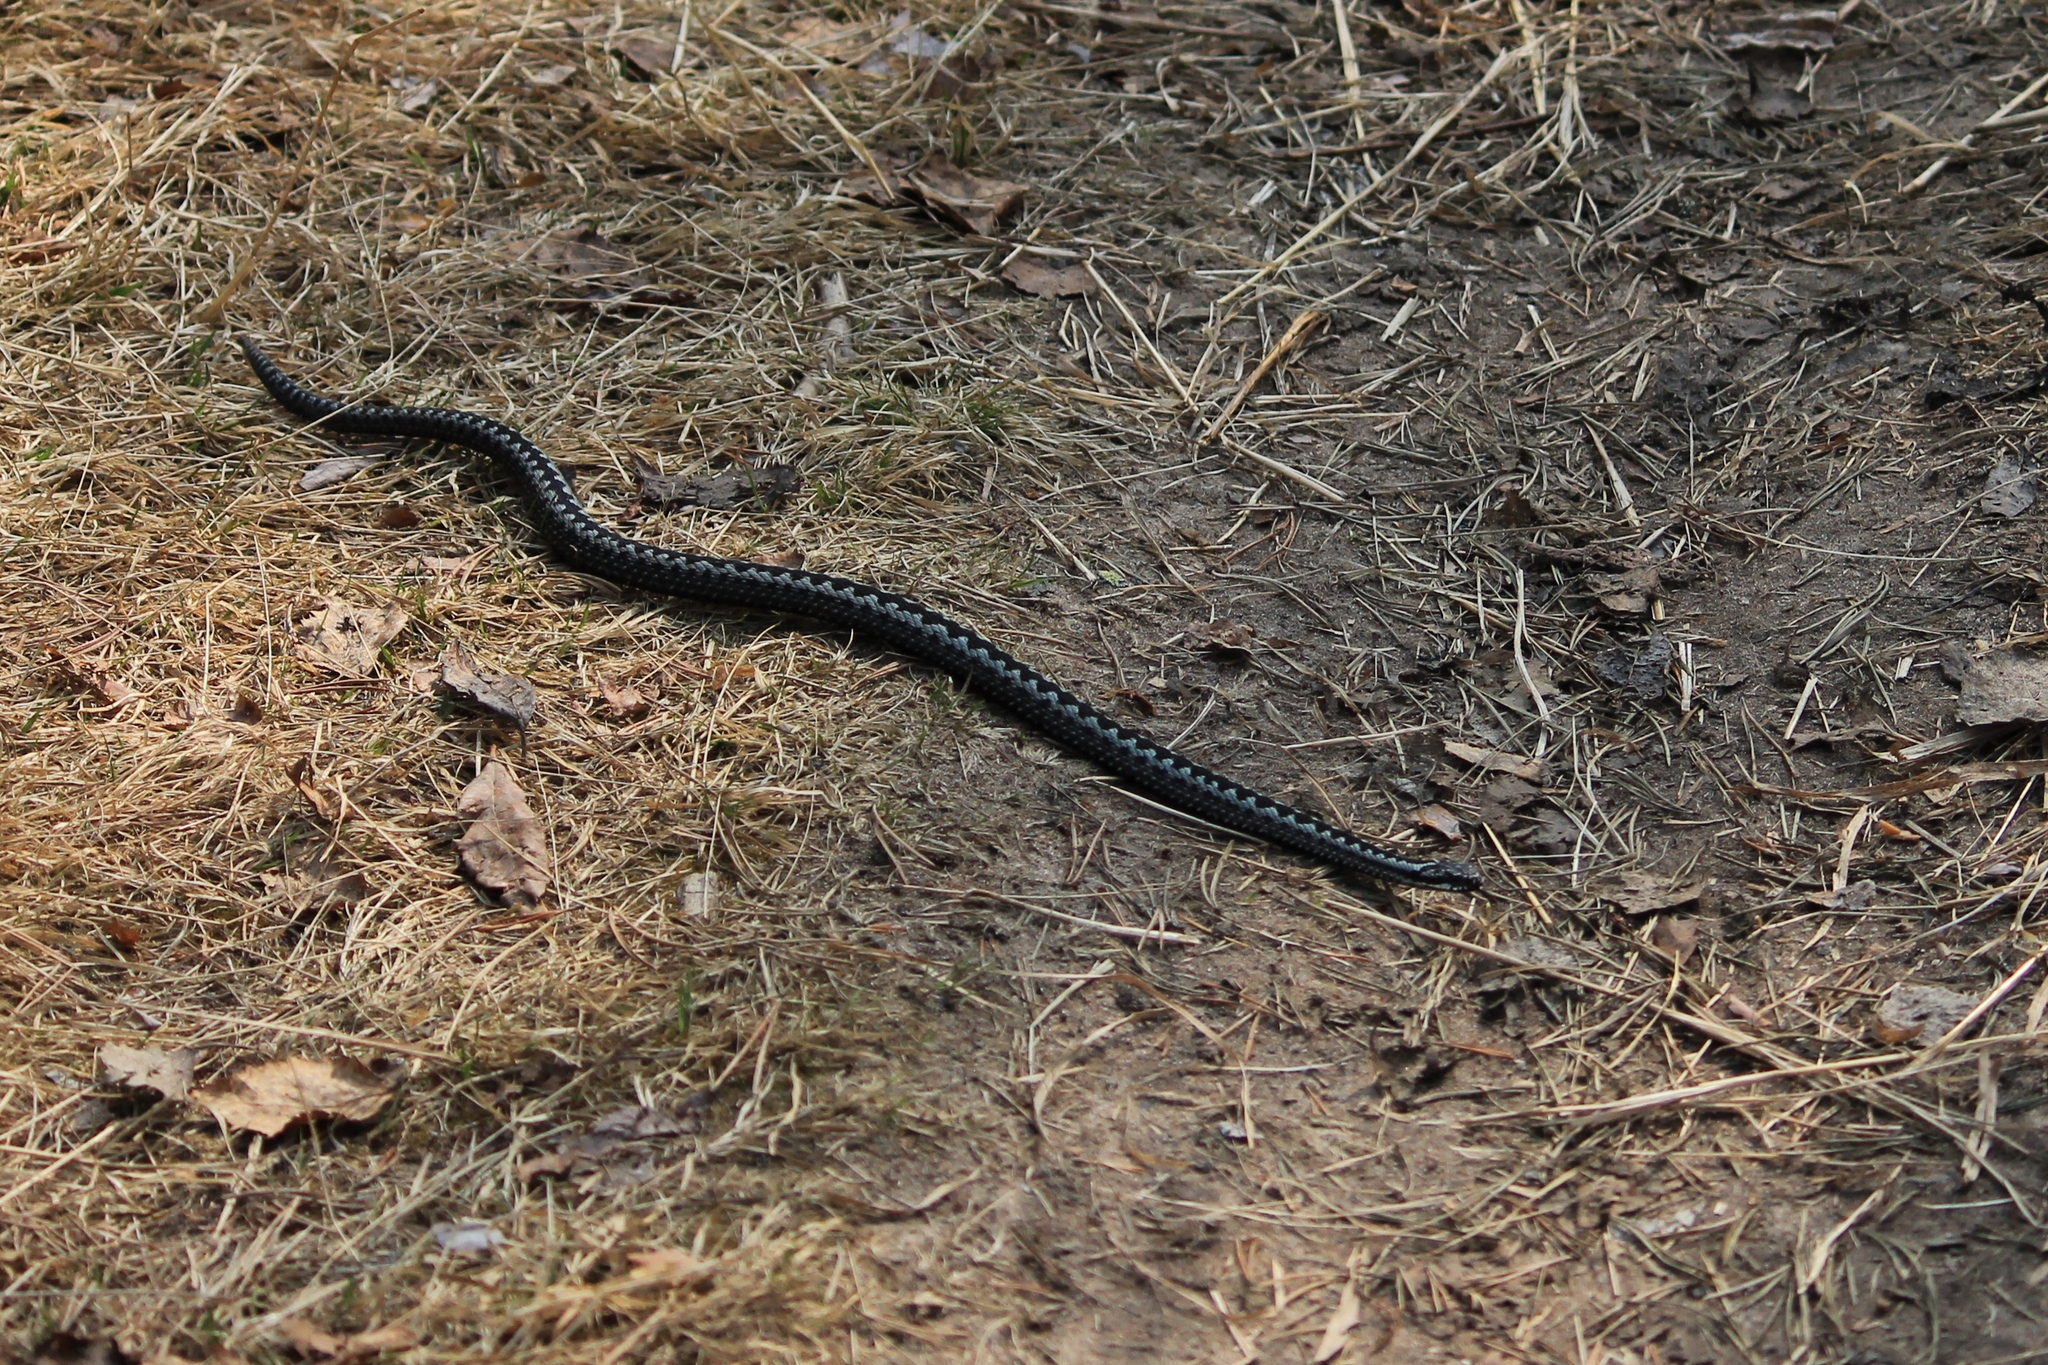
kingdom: Animalia
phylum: Chordata
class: Squamata
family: Viperidae
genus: Vipera
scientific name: Vipera berus
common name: Adder
